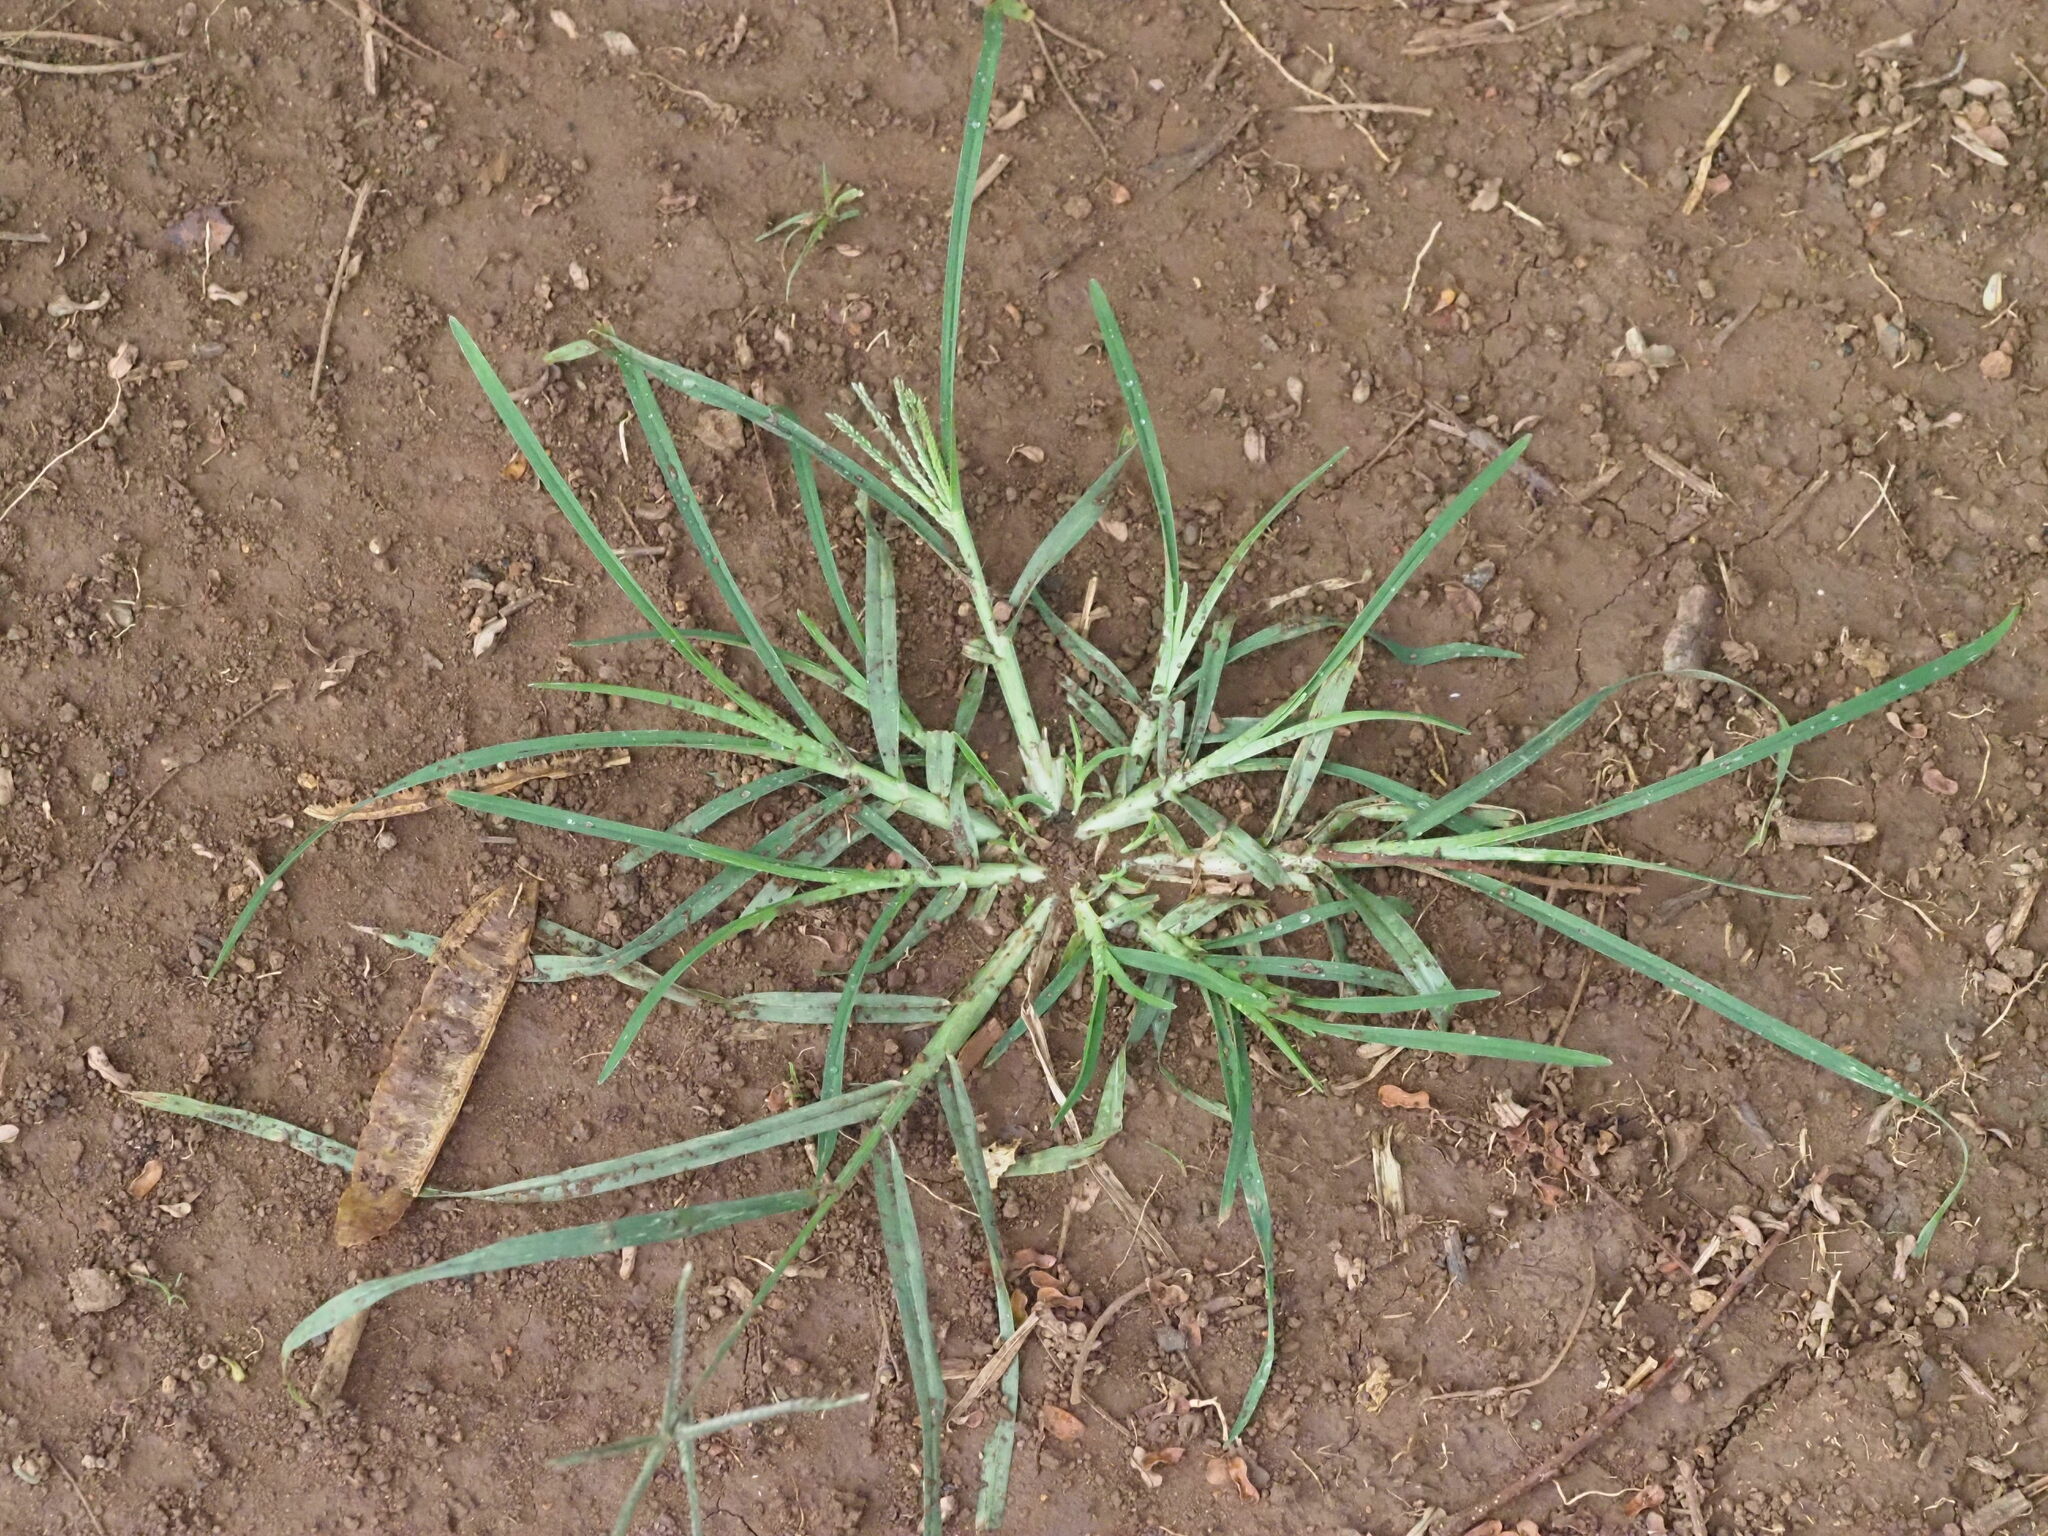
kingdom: Plantae
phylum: Tracheophyta
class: Liliopsida
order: Poales
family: Poaceae
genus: Eleusine
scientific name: Eleusine indica
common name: Yard-grass
